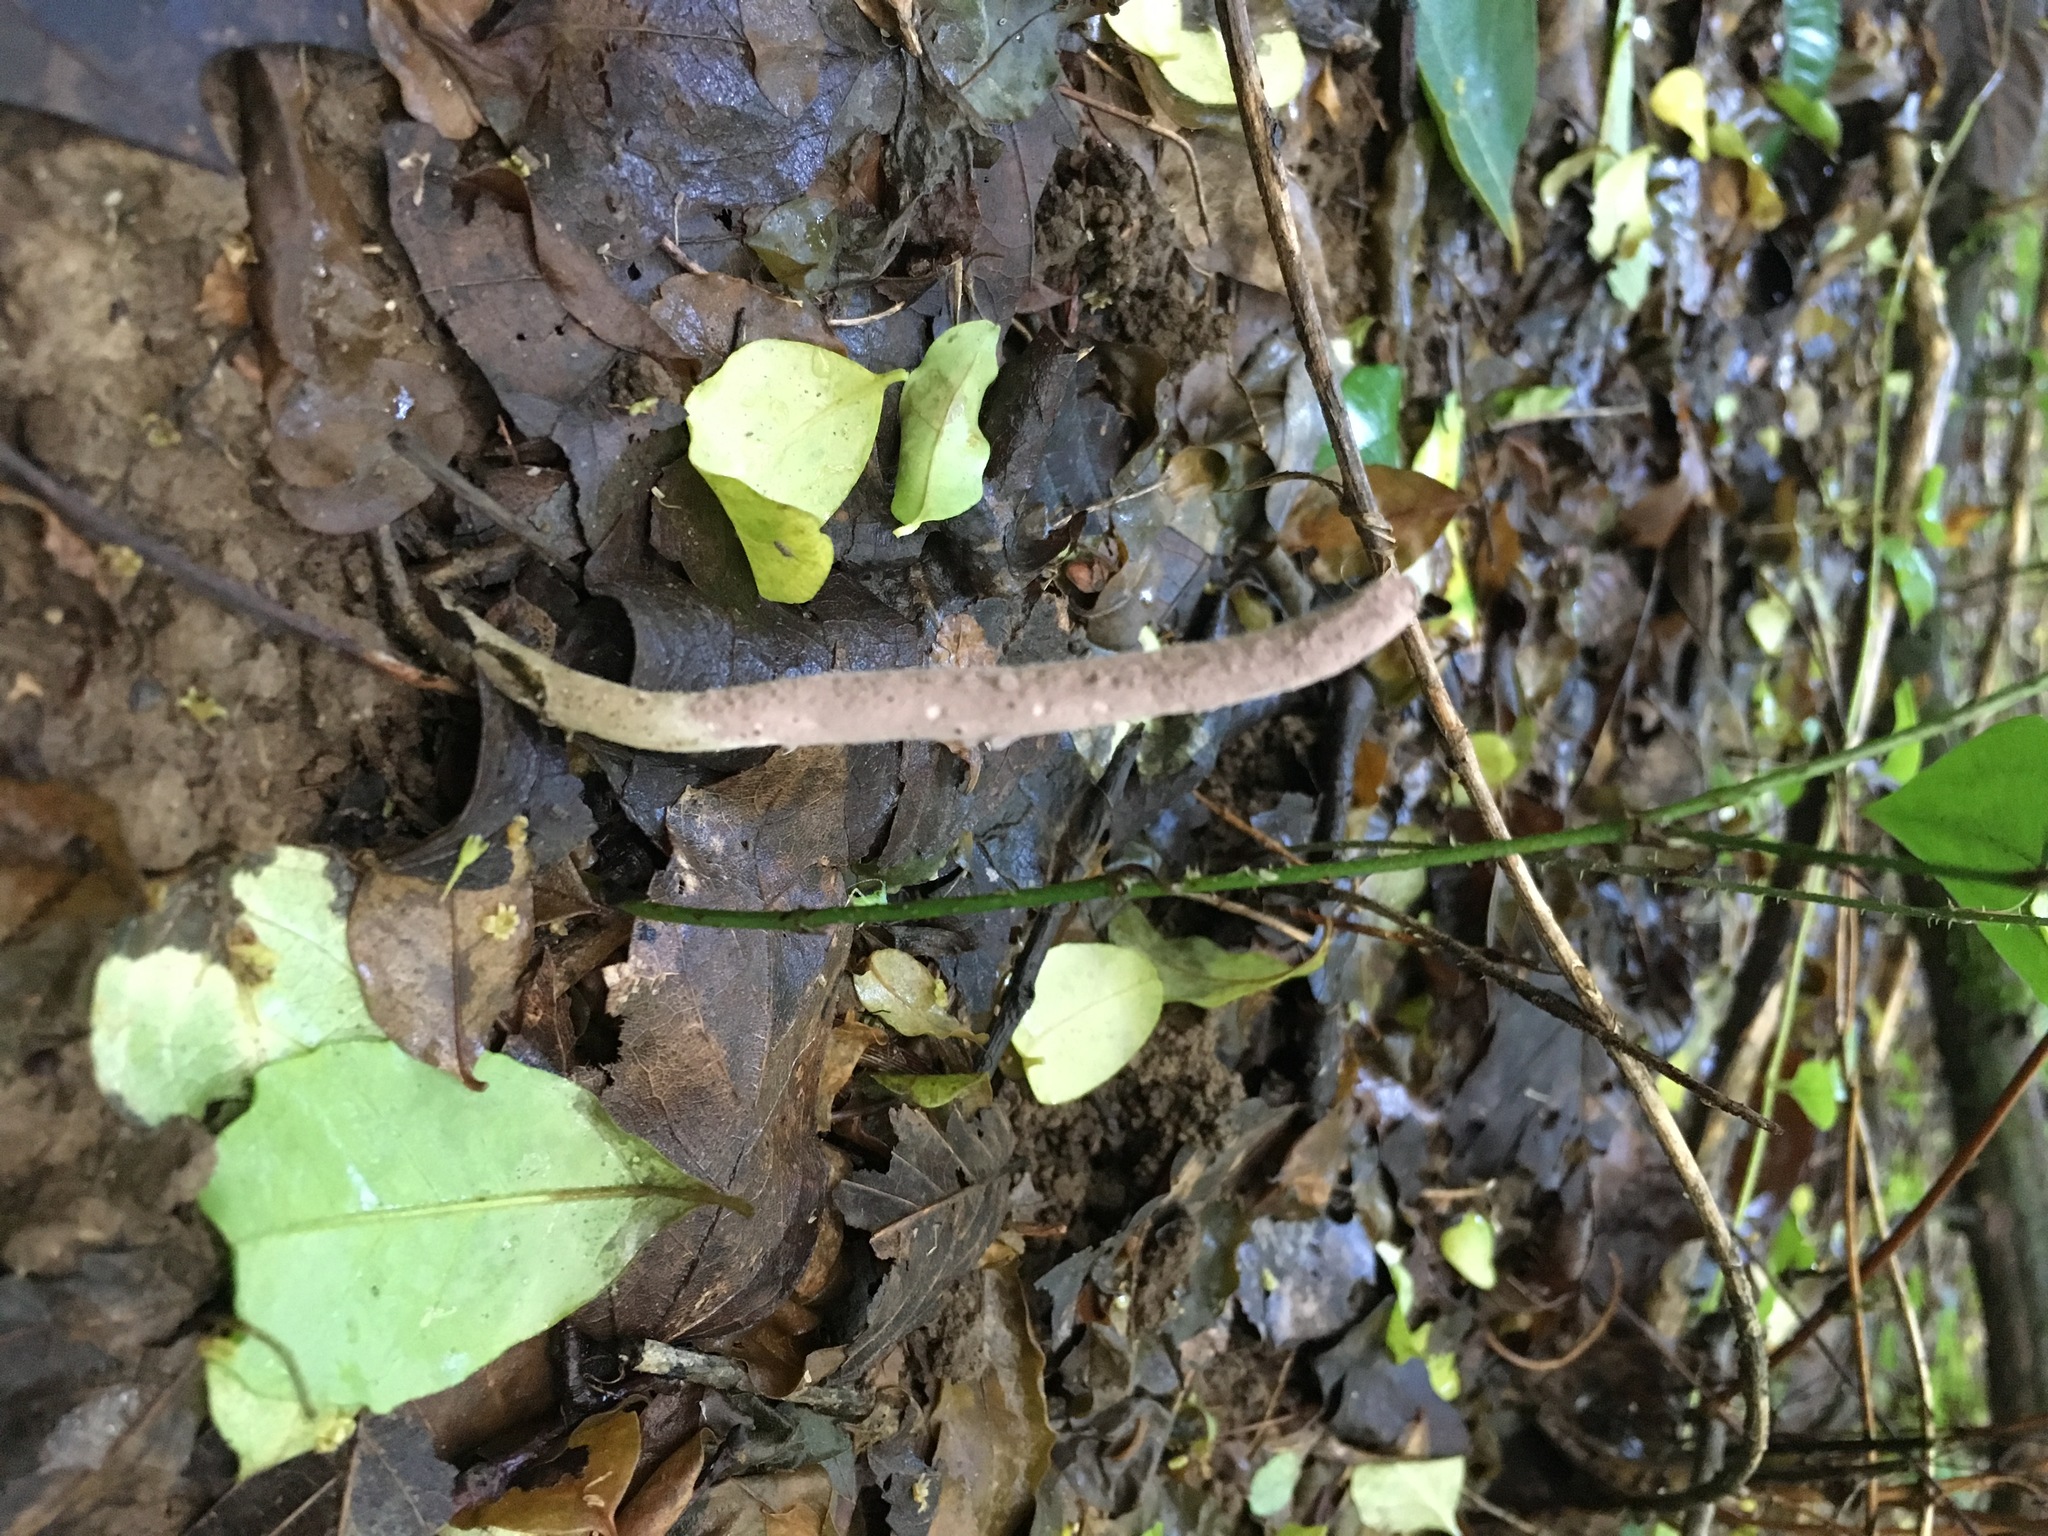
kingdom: Fungi
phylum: Ascomycota
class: Sordariomycetes
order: Hypocreales
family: Ophiocordycipitaceae
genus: Purpureocillium
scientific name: Purpureocillium atypicola
